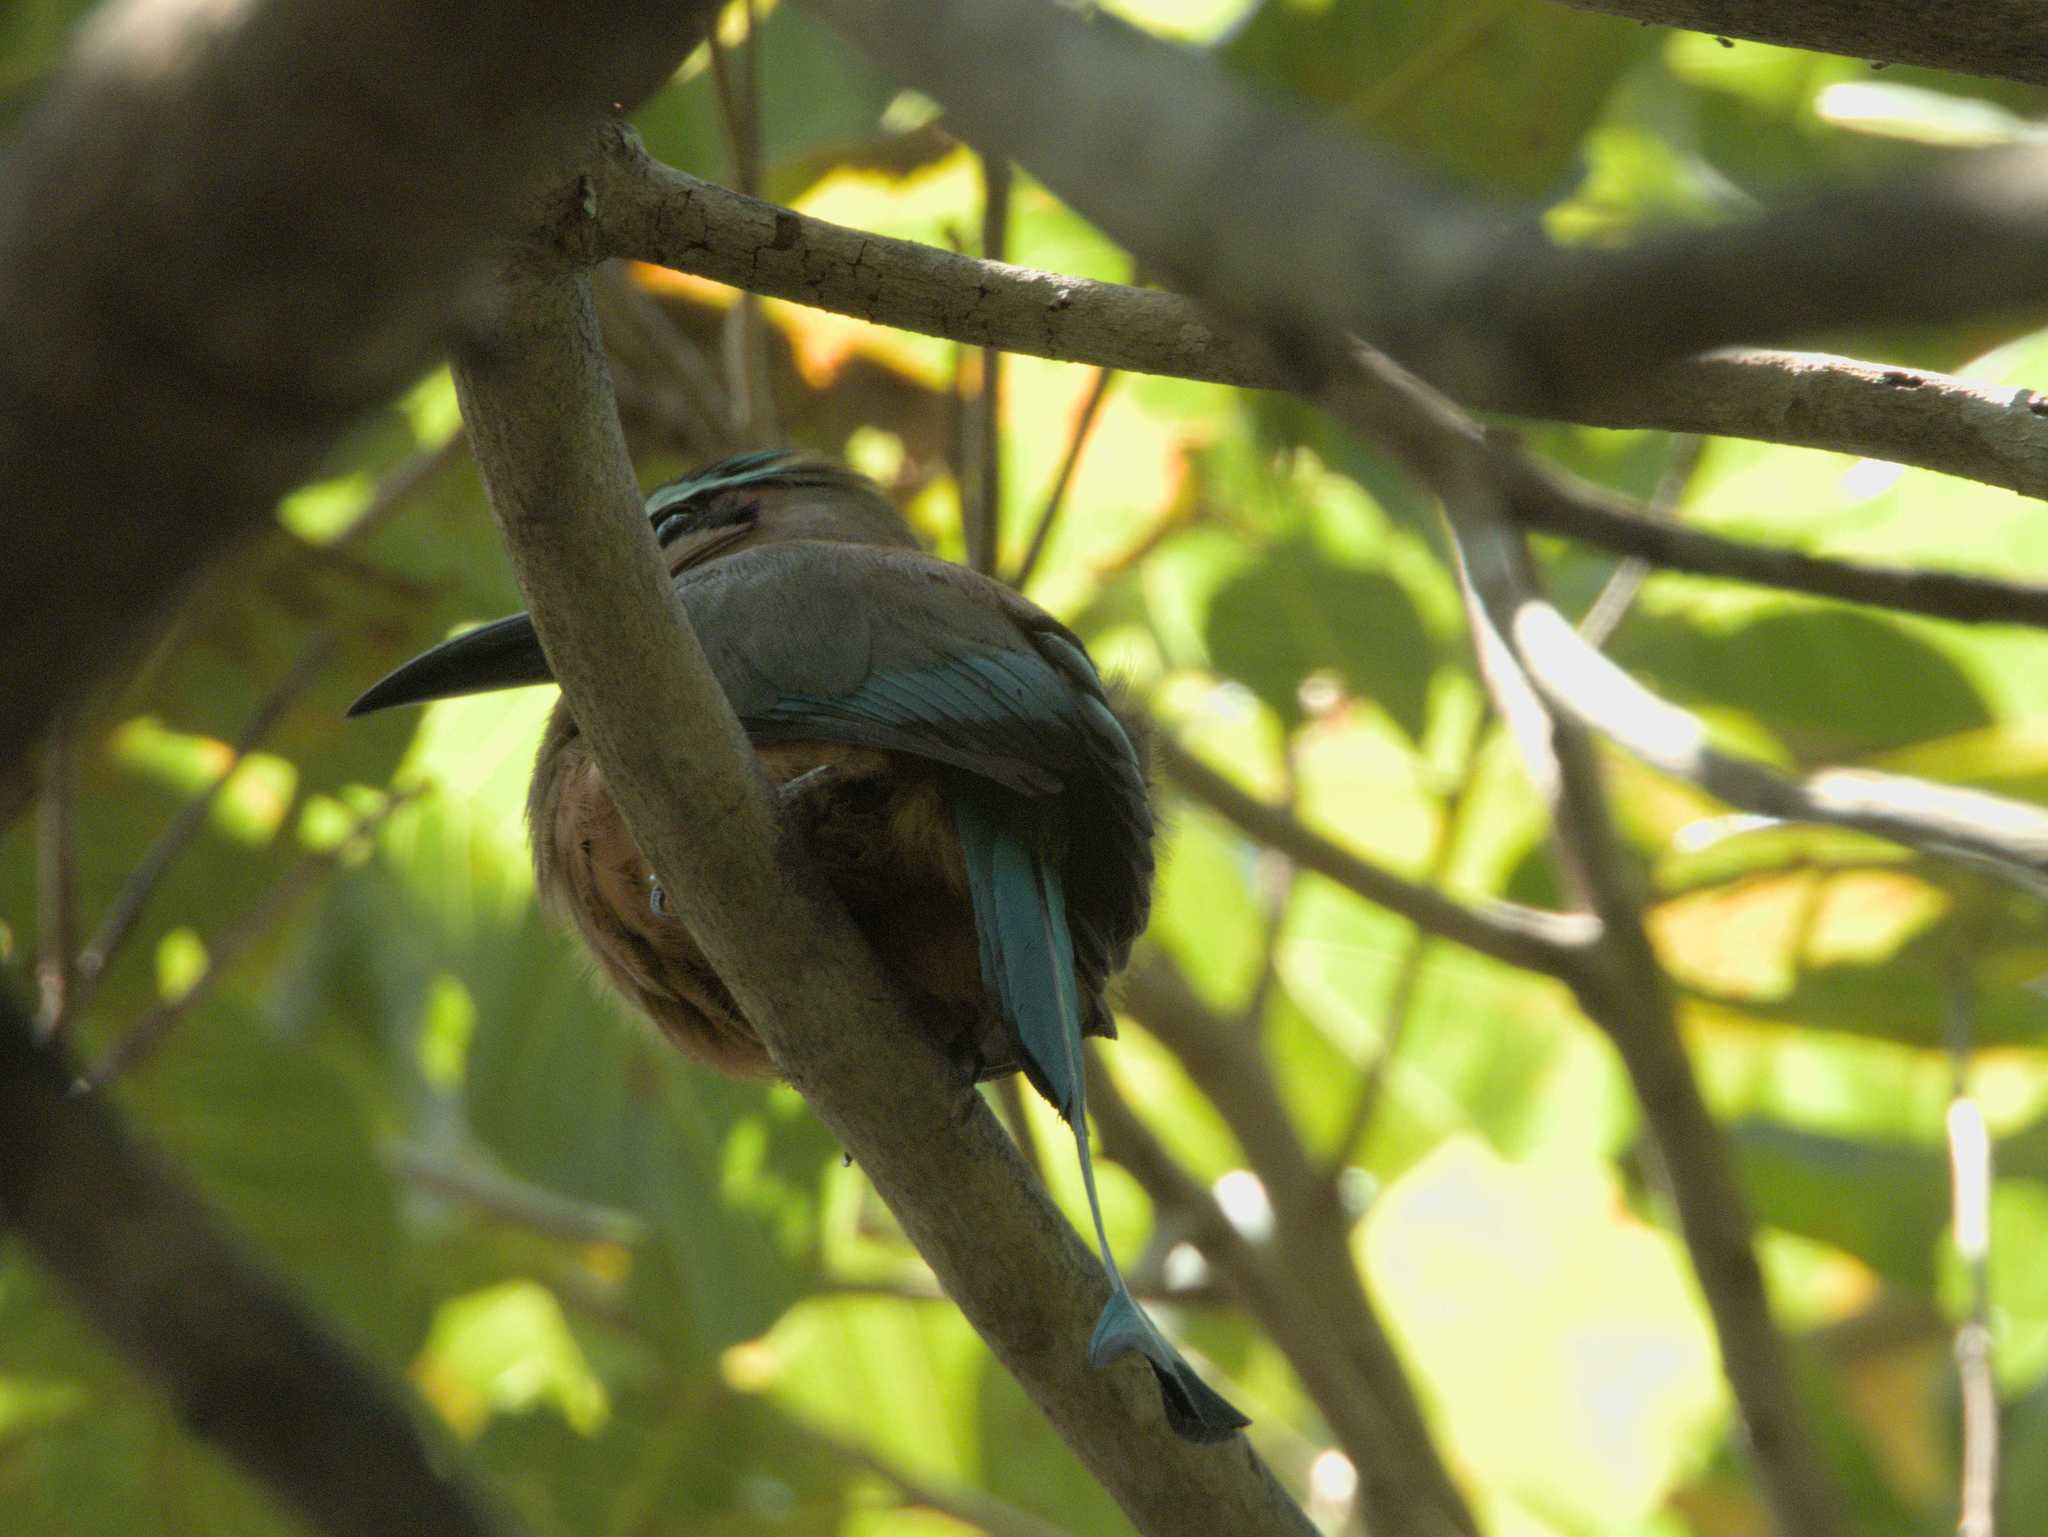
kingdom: Animalia
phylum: Chordata
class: Aves
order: Coraciiformes
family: Momotidae
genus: Eumomota
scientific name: Eumomota superciliosa
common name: Turquoise-browed motmot
